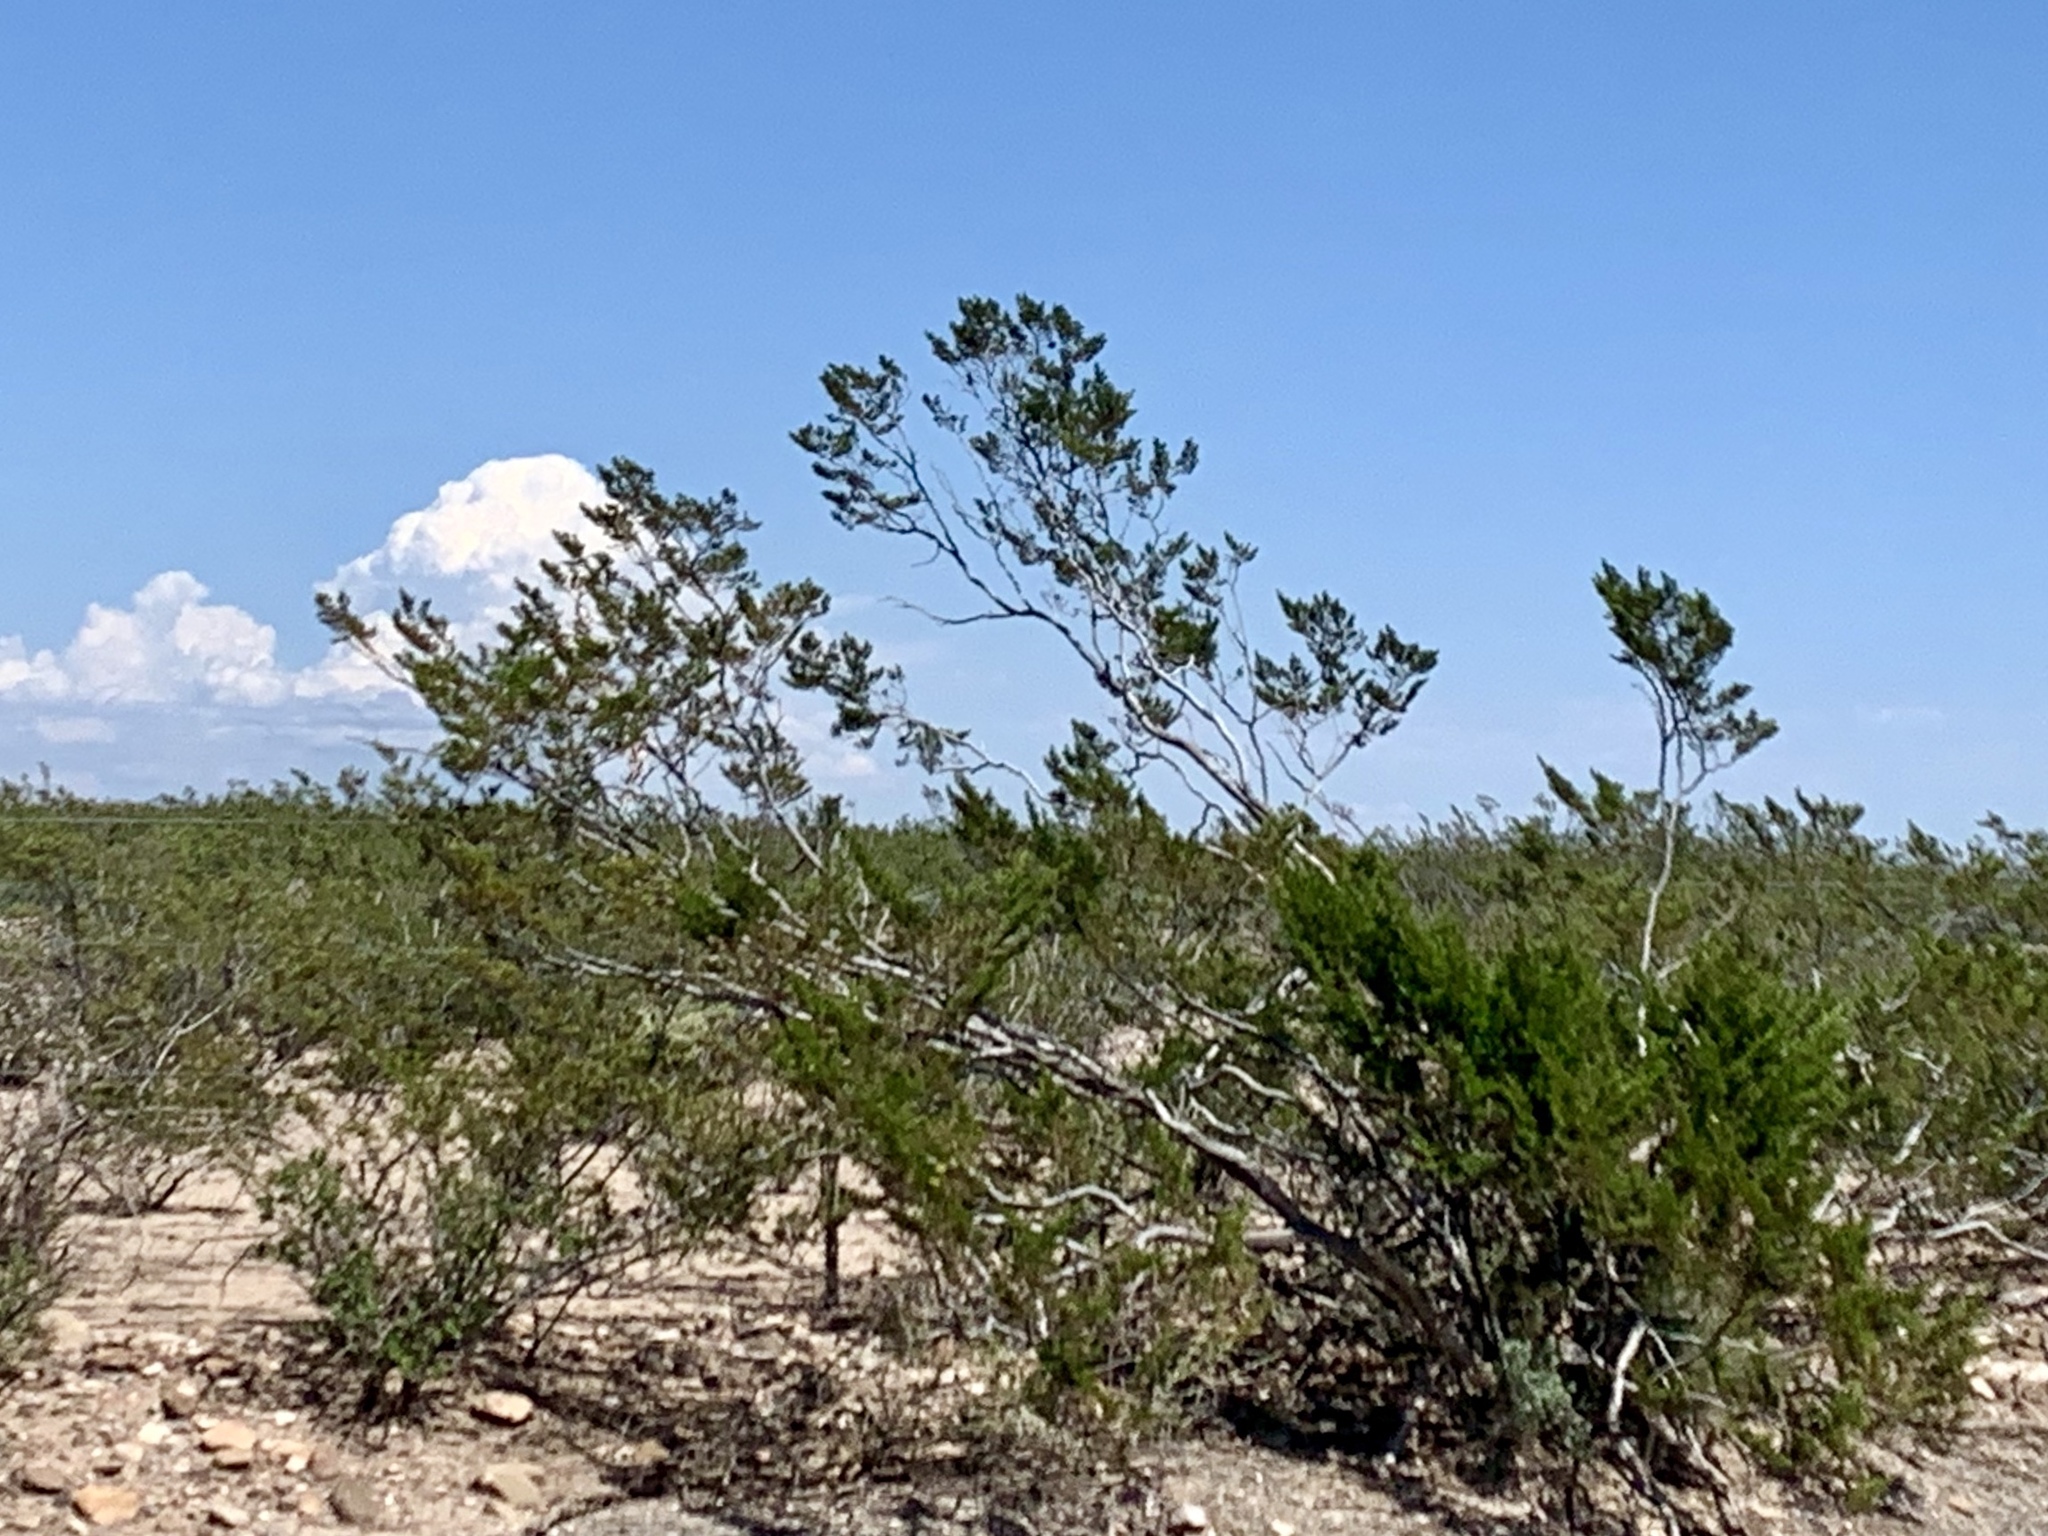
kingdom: Plantae
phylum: Tracheophyta
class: Magnoliopsida
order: Zygophyllales
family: Zygophyllaceae
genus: Larrea
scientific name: Larrea tridentata
